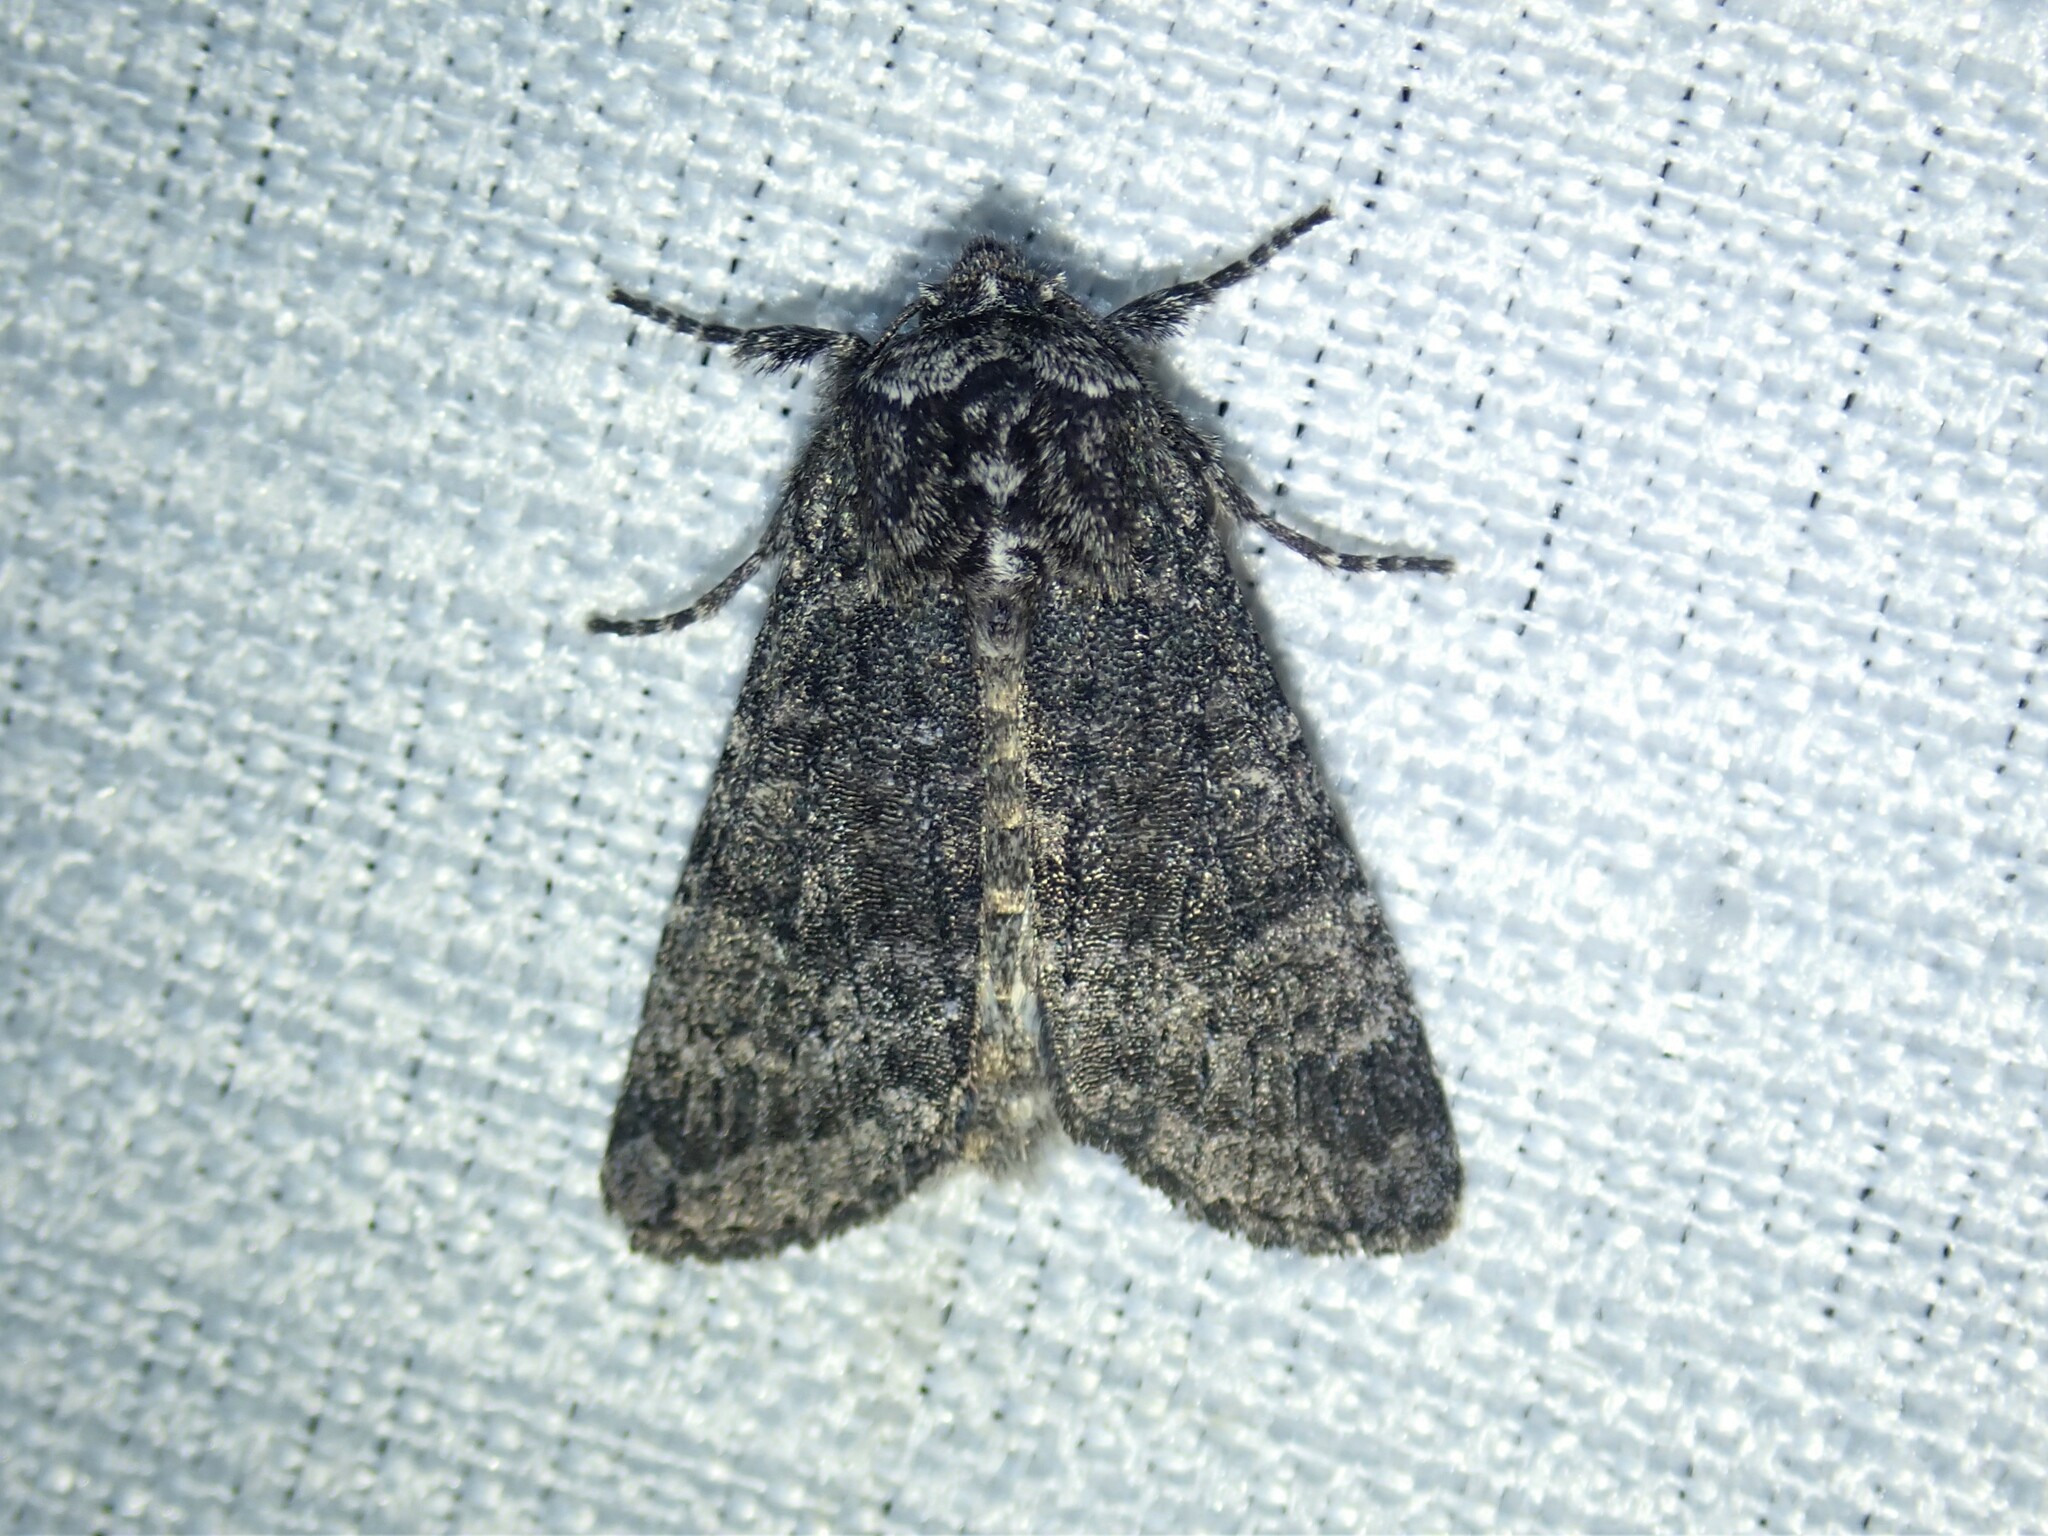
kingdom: Animalia
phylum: Arthropoda
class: Insecta
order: Lepidoptera
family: Noctuidae
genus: Egira
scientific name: Egira dolosa
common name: Lined black aspen cat.
